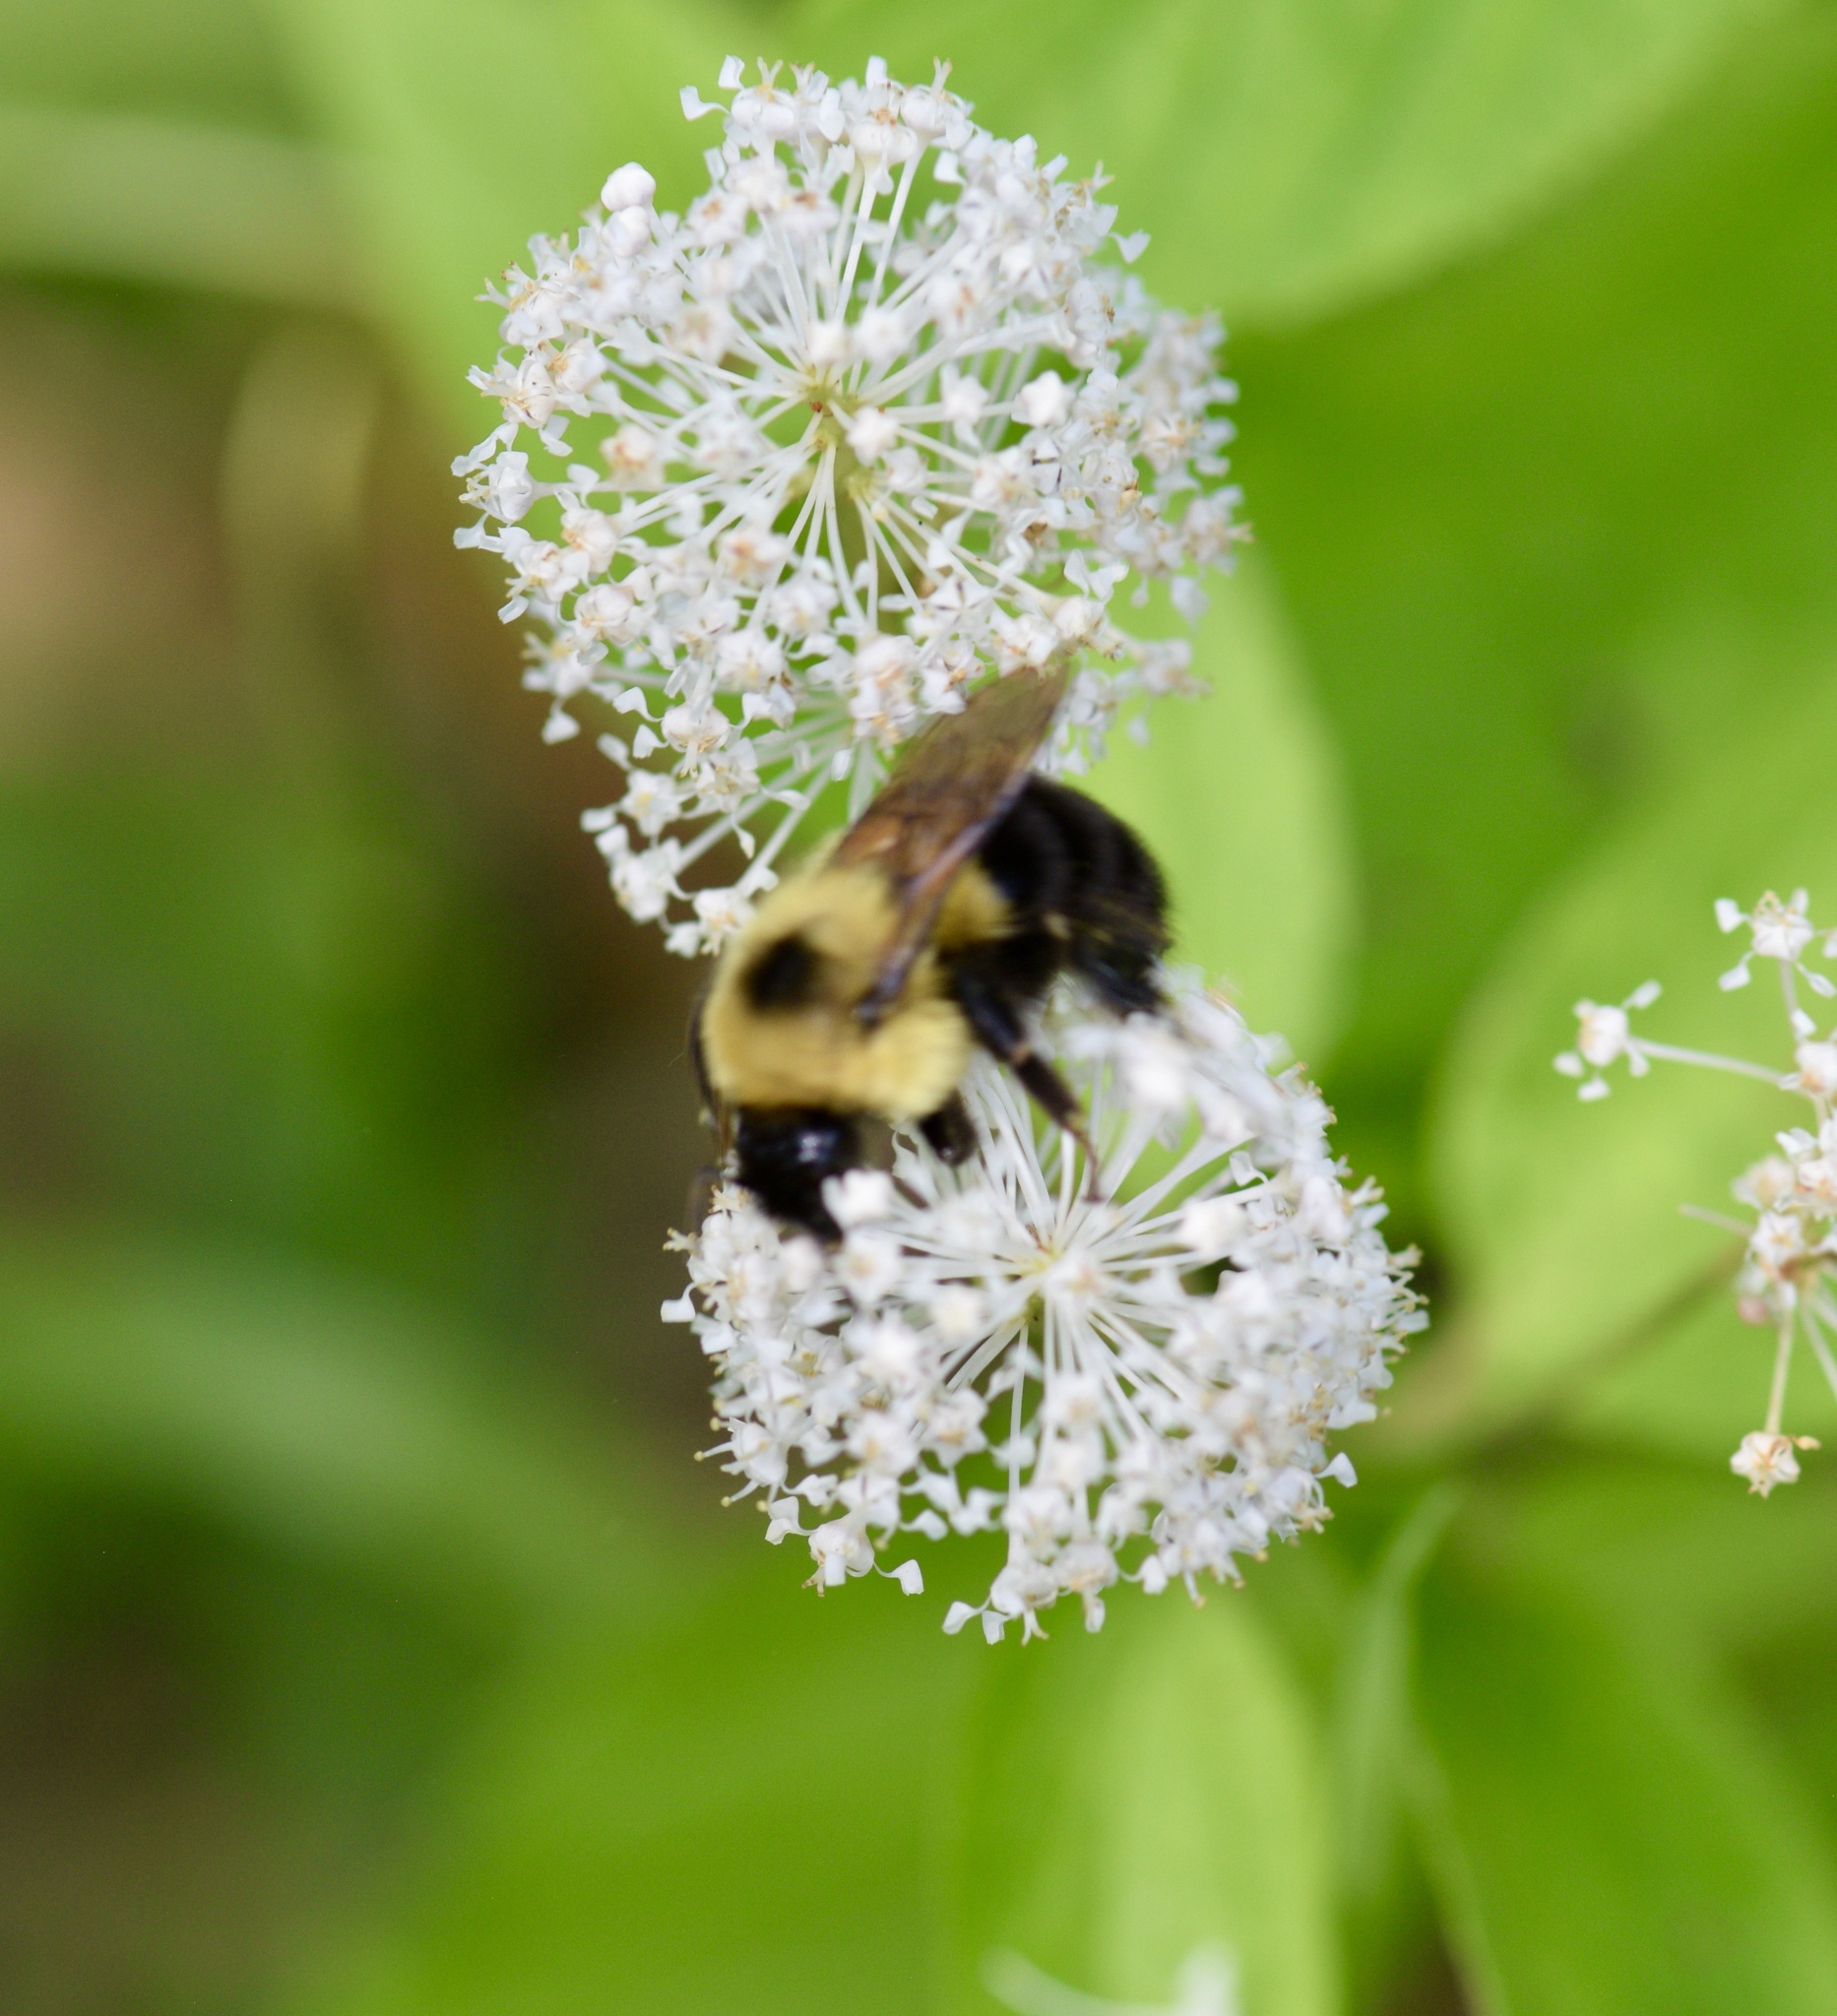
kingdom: Animalia
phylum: Arthropoda
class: Insecta
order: Hymenoptera
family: Apidae
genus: Bombus
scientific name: Bombus bimaculatus
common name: Two-spotted bumble bee
